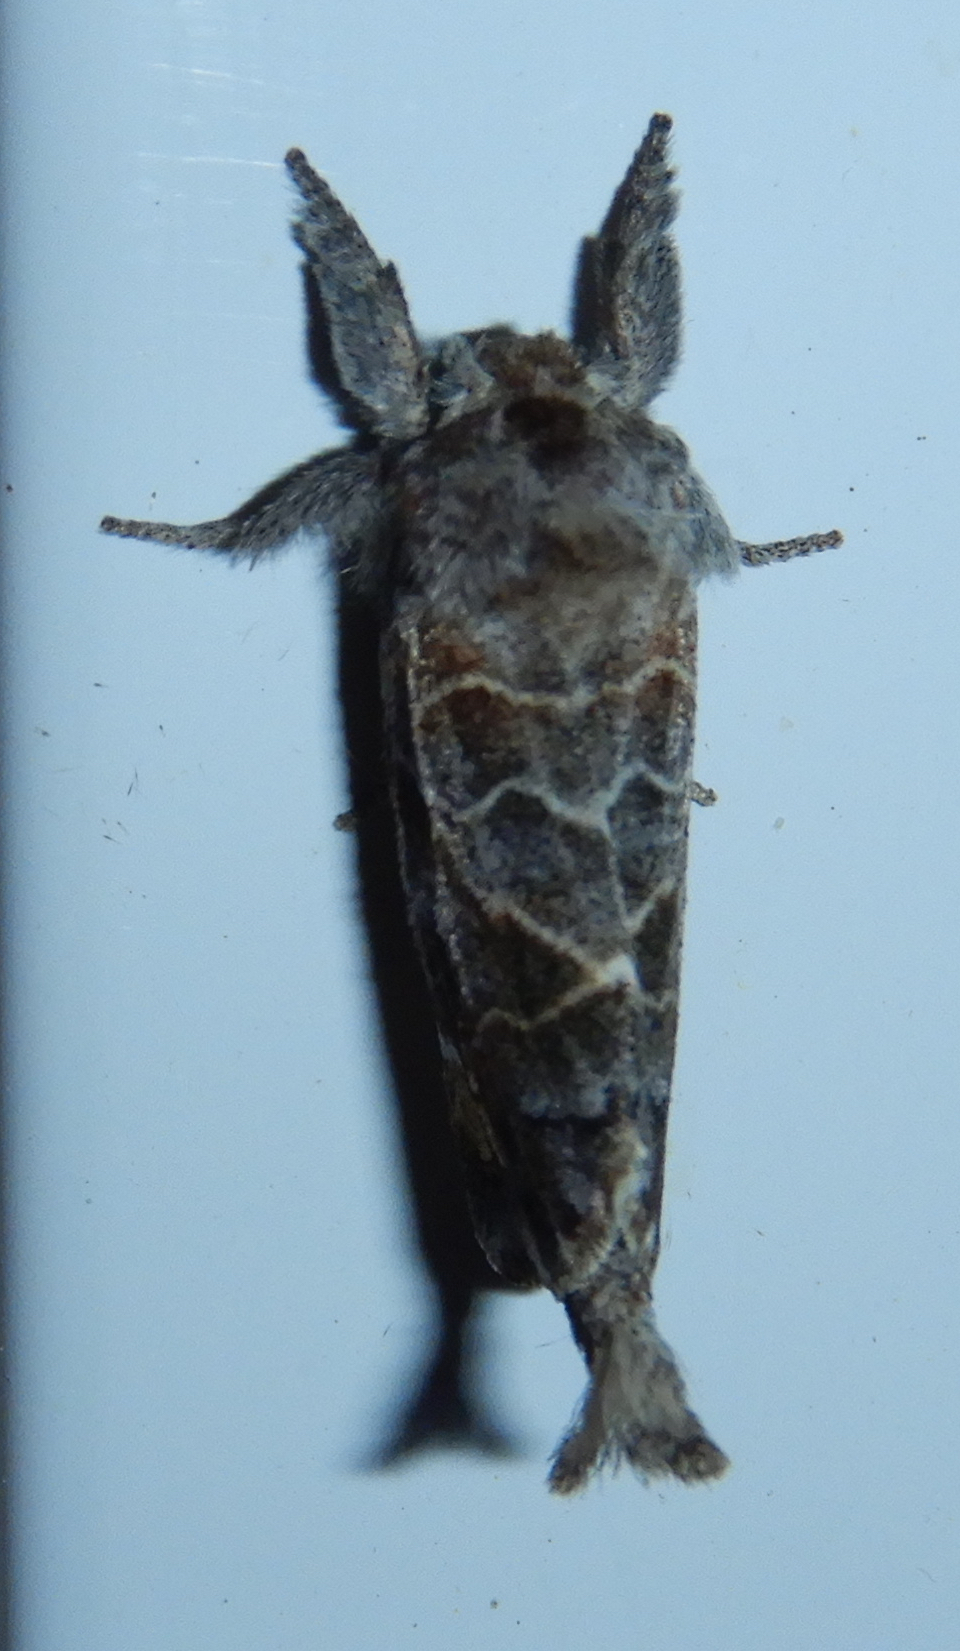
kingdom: Animalia
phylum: Arthropoda
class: Insecta
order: Lepidoptera
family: Notodontidae
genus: Clostera
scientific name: Clostera strigosa
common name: Striped chocolate-tip moth
